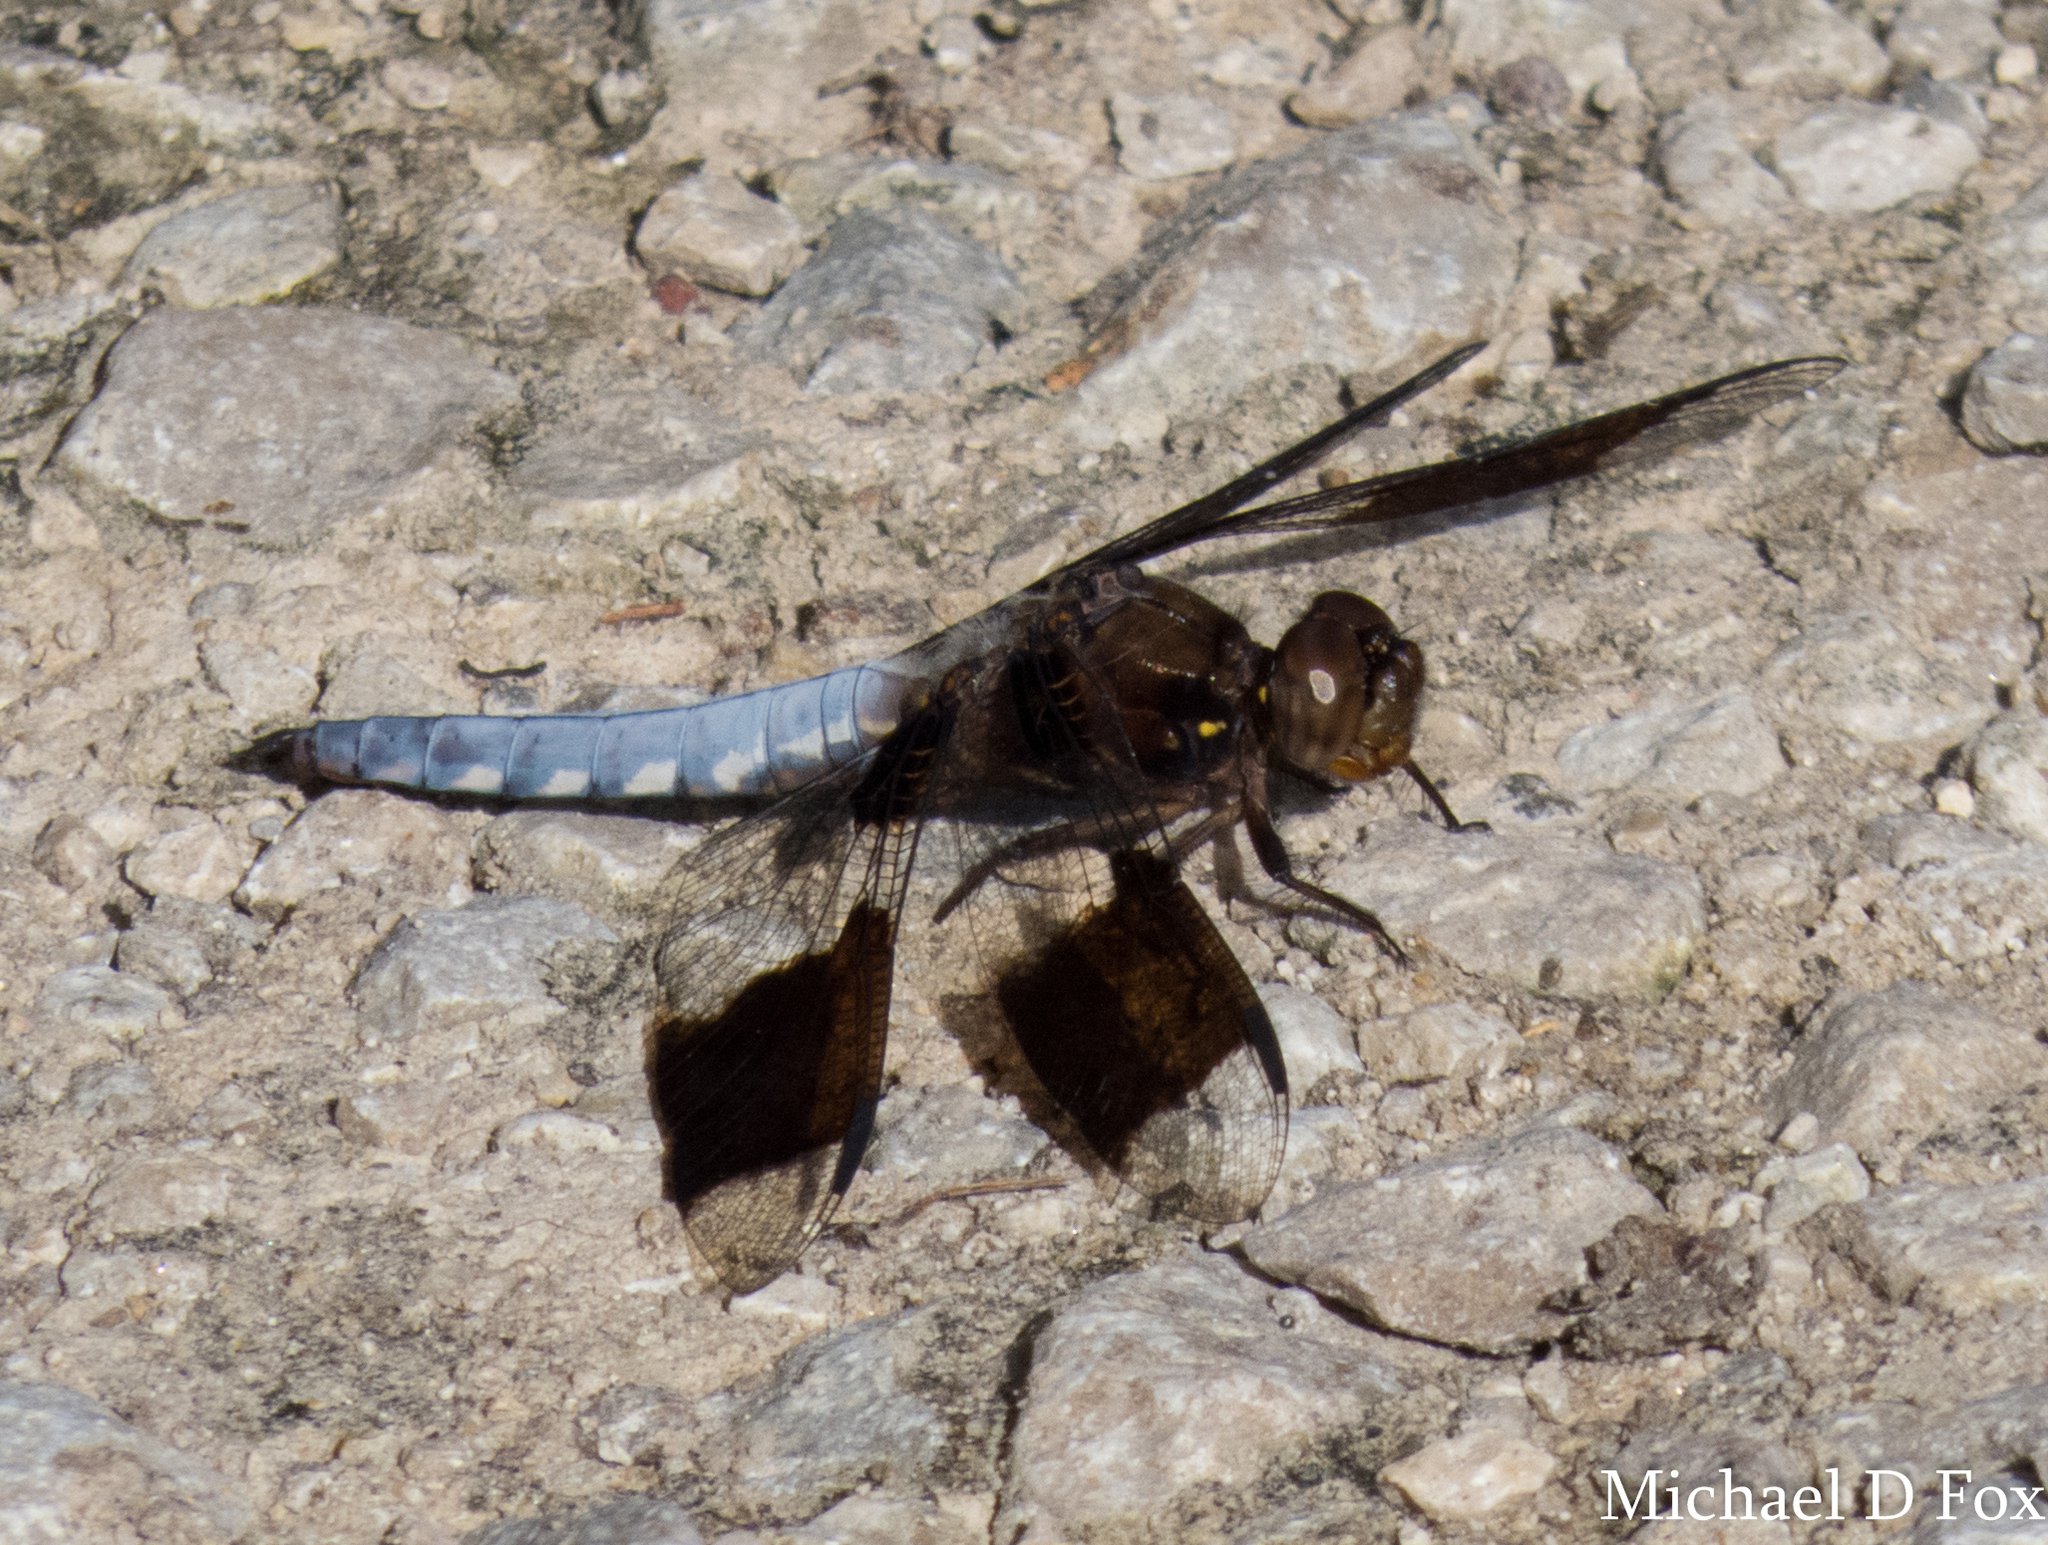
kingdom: Animalia
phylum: Arthropoda
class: Insecta
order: Odonata
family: Libellulidae
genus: Plathemis
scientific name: Plathemis lydia
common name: Common whitetail
